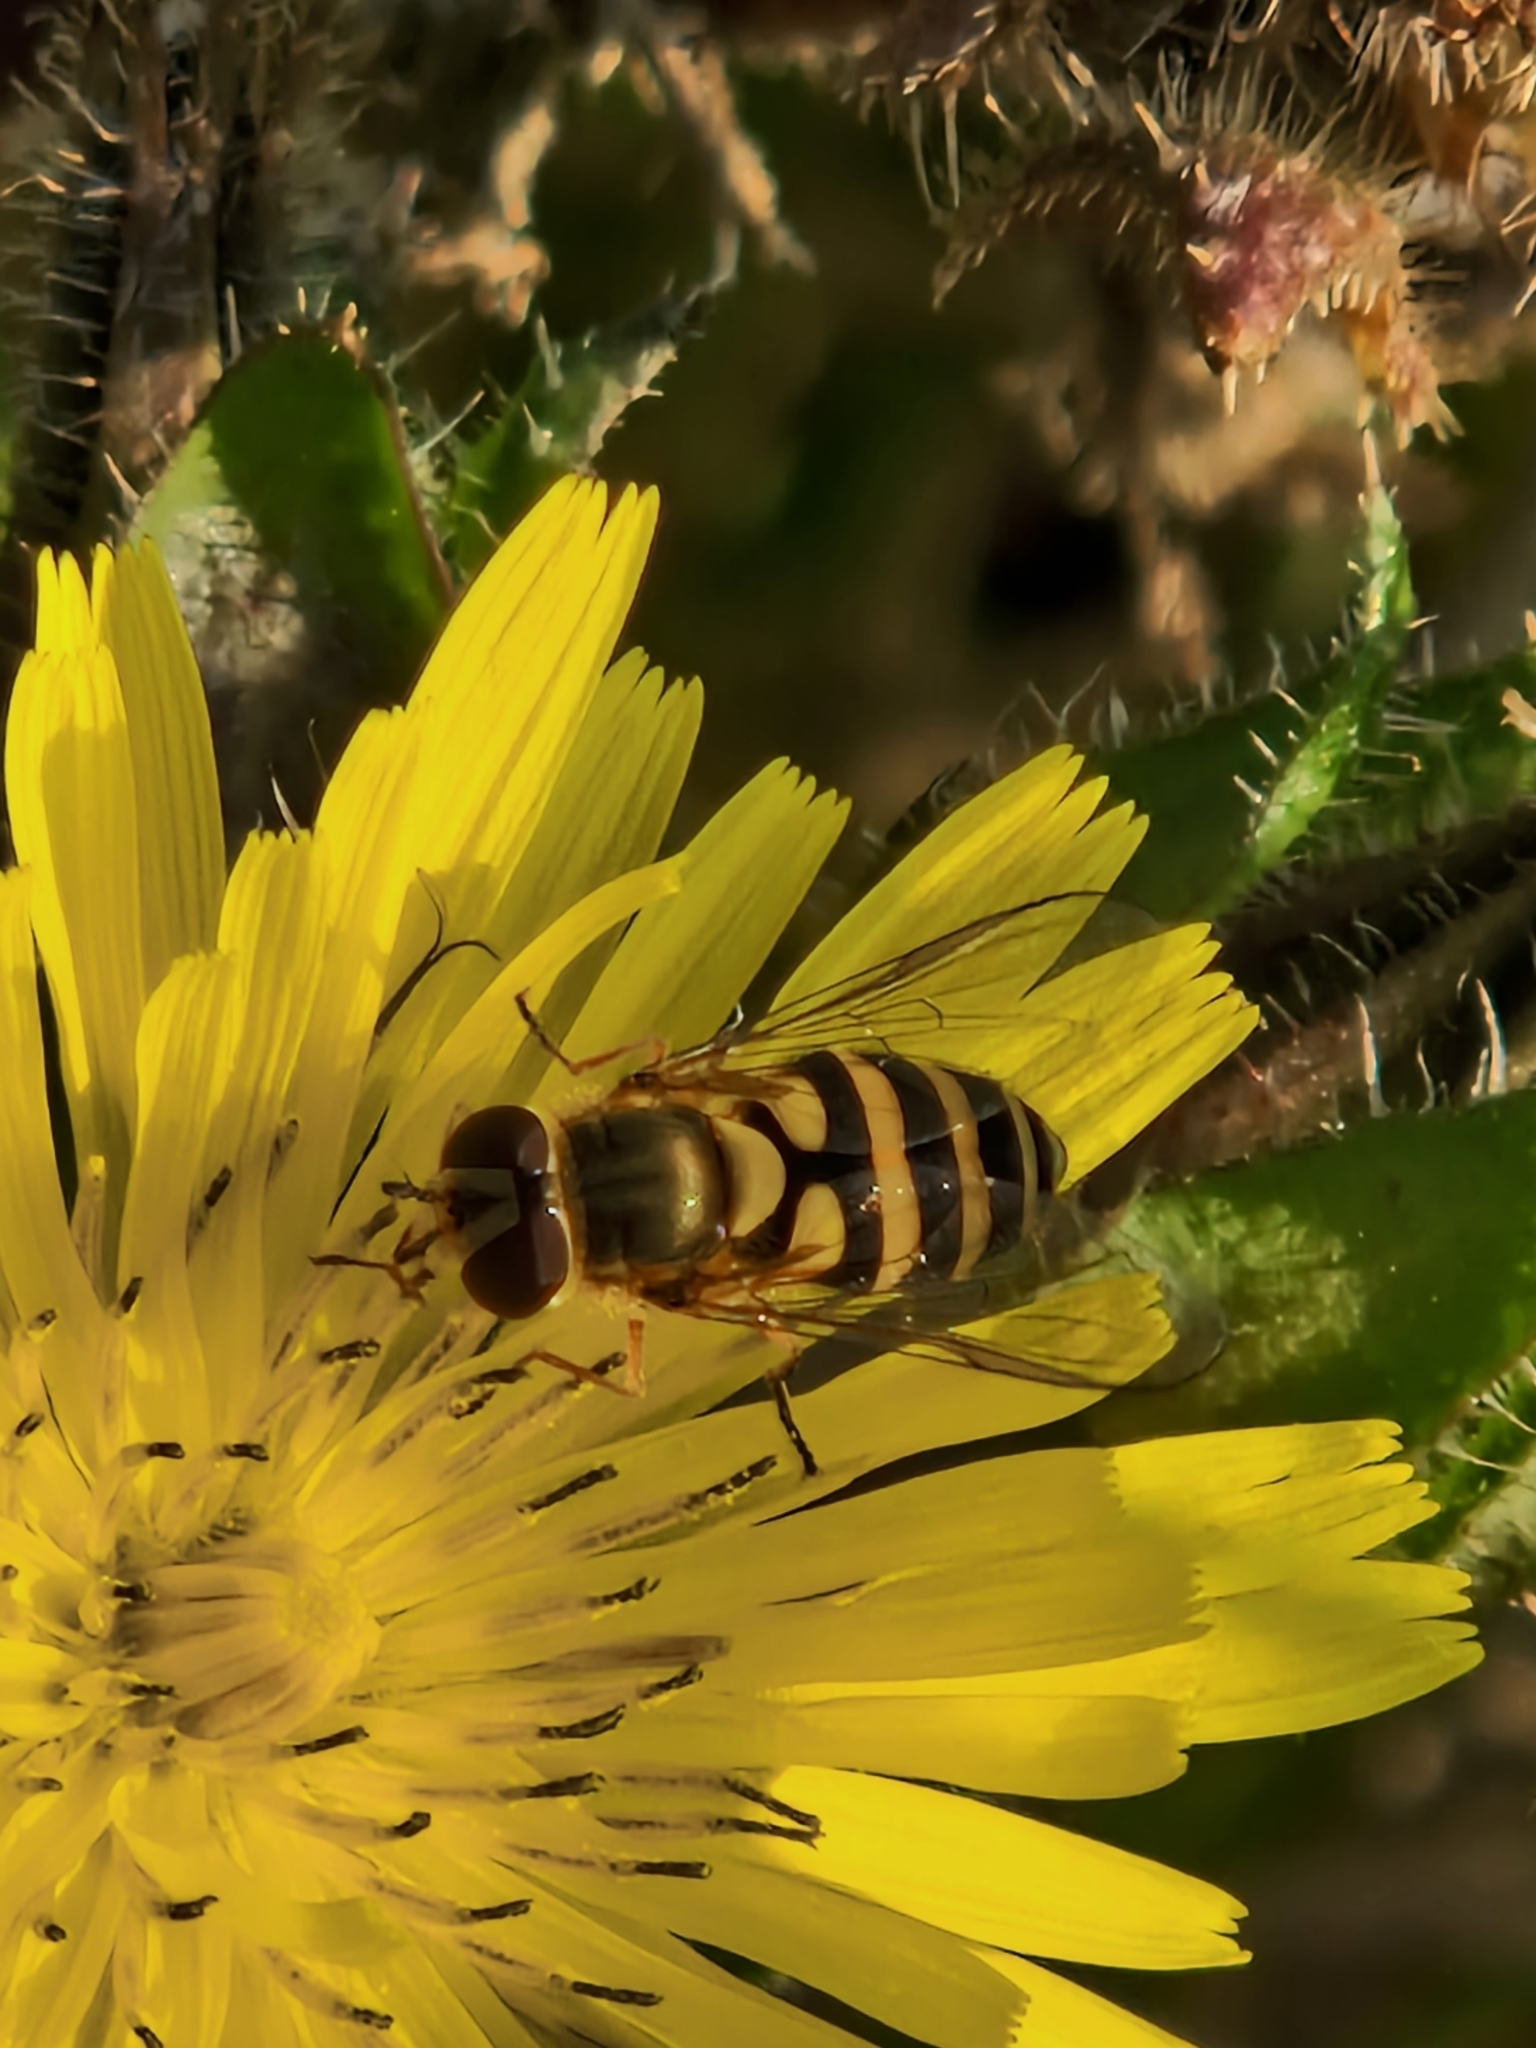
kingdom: Animalia
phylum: Arthropoda
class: Insecta
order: Diptera
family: Syrphidae
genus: Syrphus
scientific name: Syrphus
